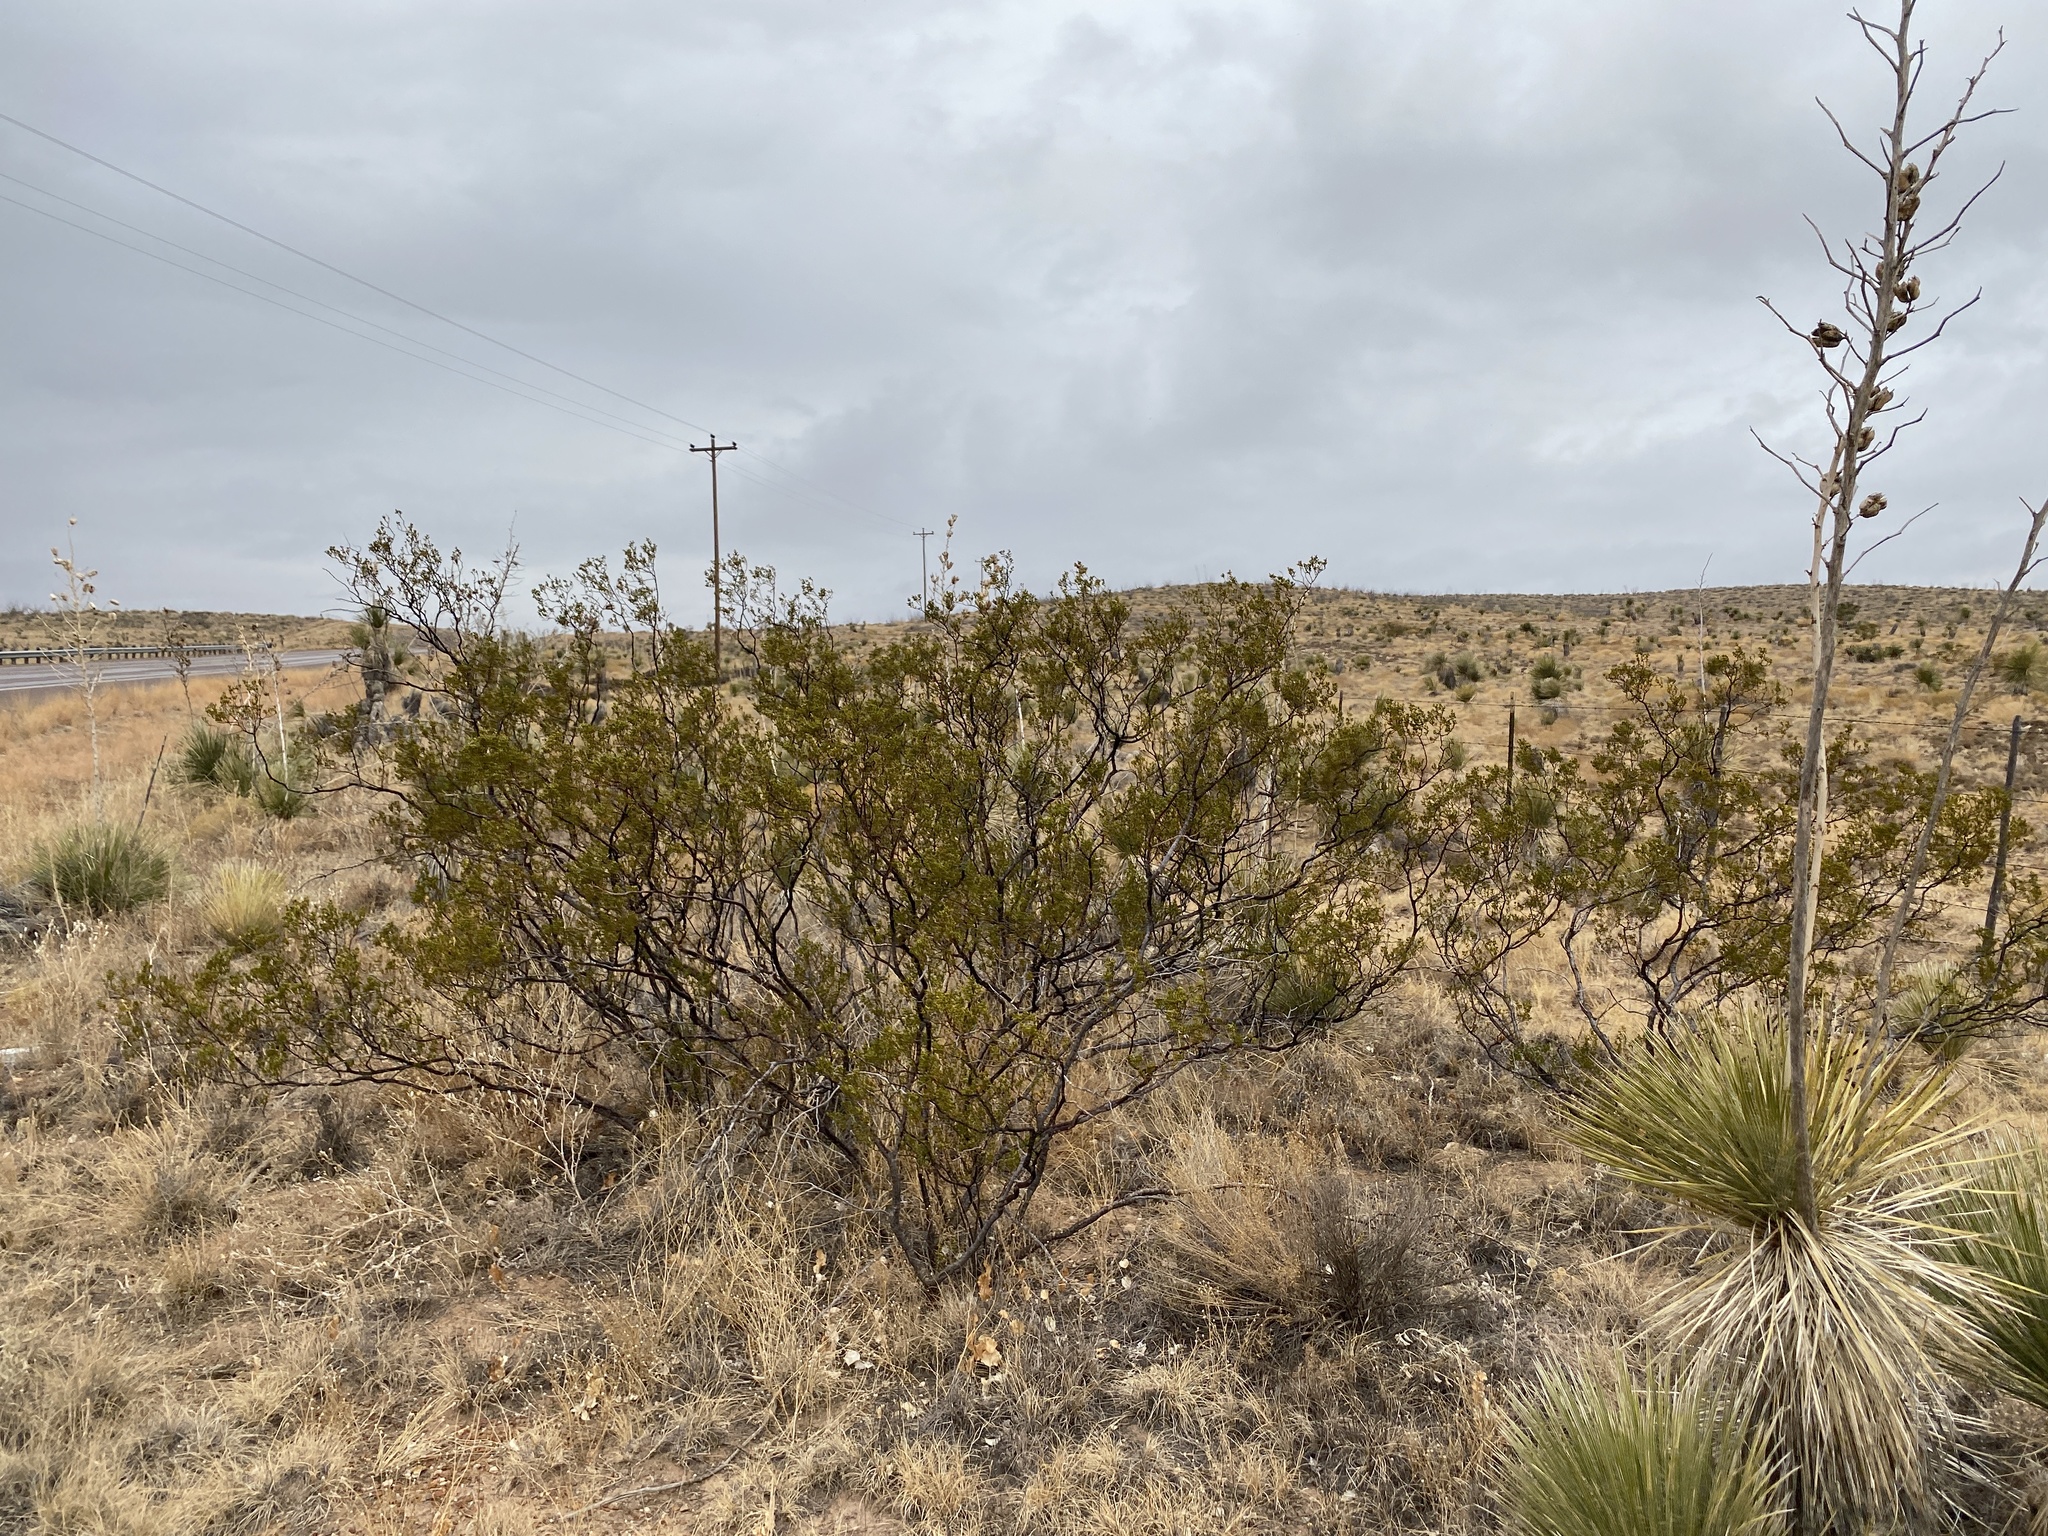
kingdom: Plantae
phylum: Tracheophyta
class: Magnoliopsida
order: Zygophyllales
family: Zygophyllaceae
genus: Larrea
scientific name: Larrea tridentata
